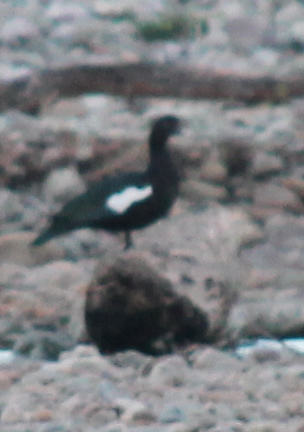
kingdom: Animalia
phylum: Chordata
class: Aves
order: Anseriformes
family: Anatidae
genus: Cairina
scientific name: Cairina moschata
